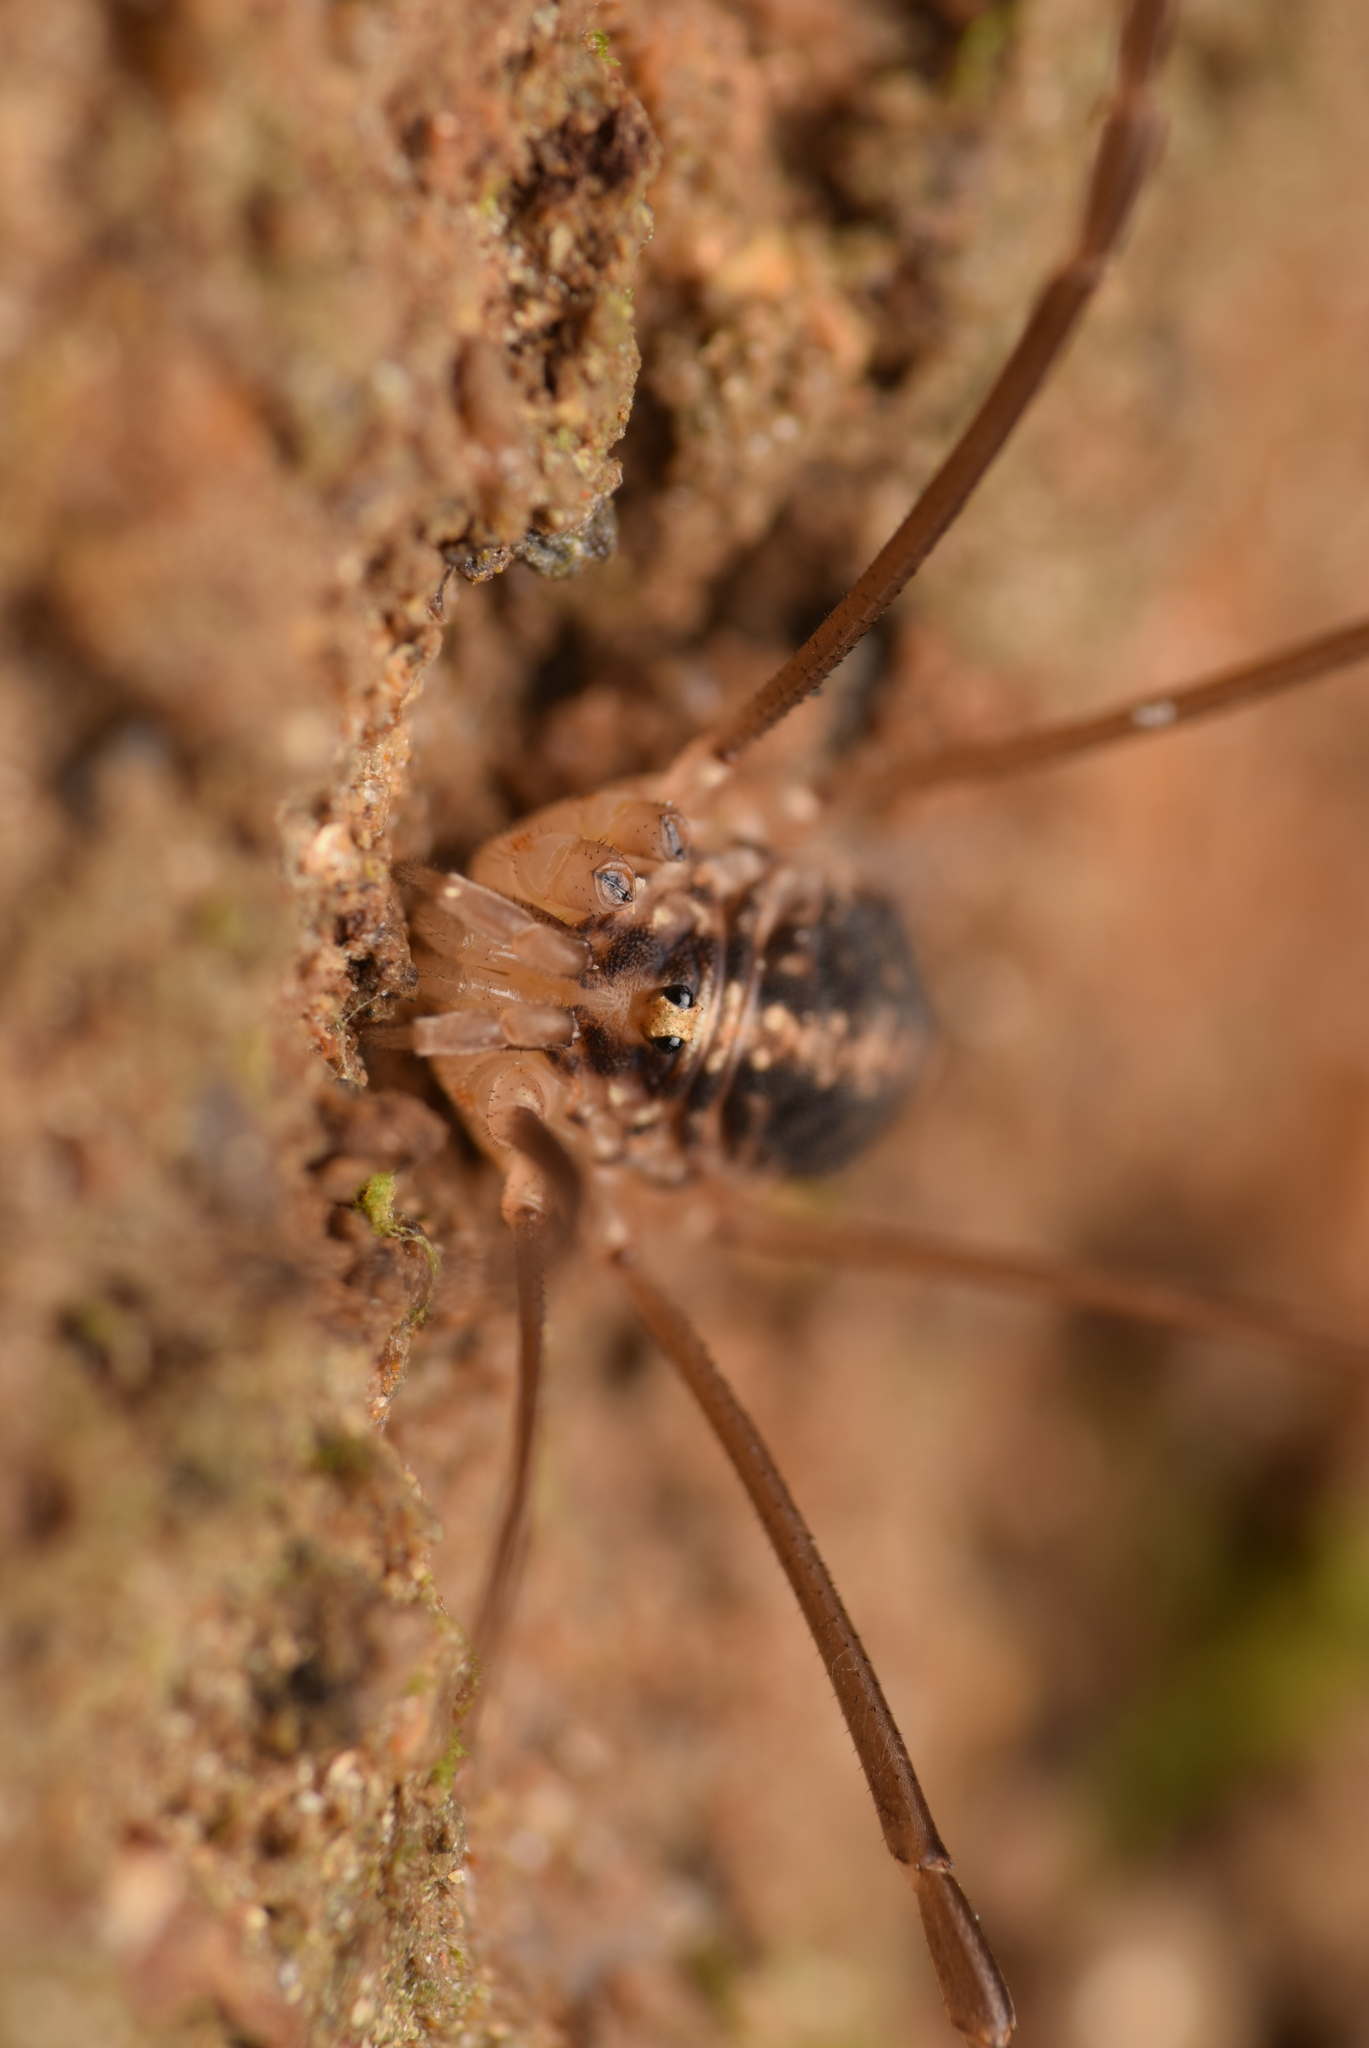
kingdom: Animalia
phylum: Arthropoda
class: Arachnida
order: Opiliones
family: Sclerosomatidae
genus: Nelima
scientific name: Nelima silvatica
